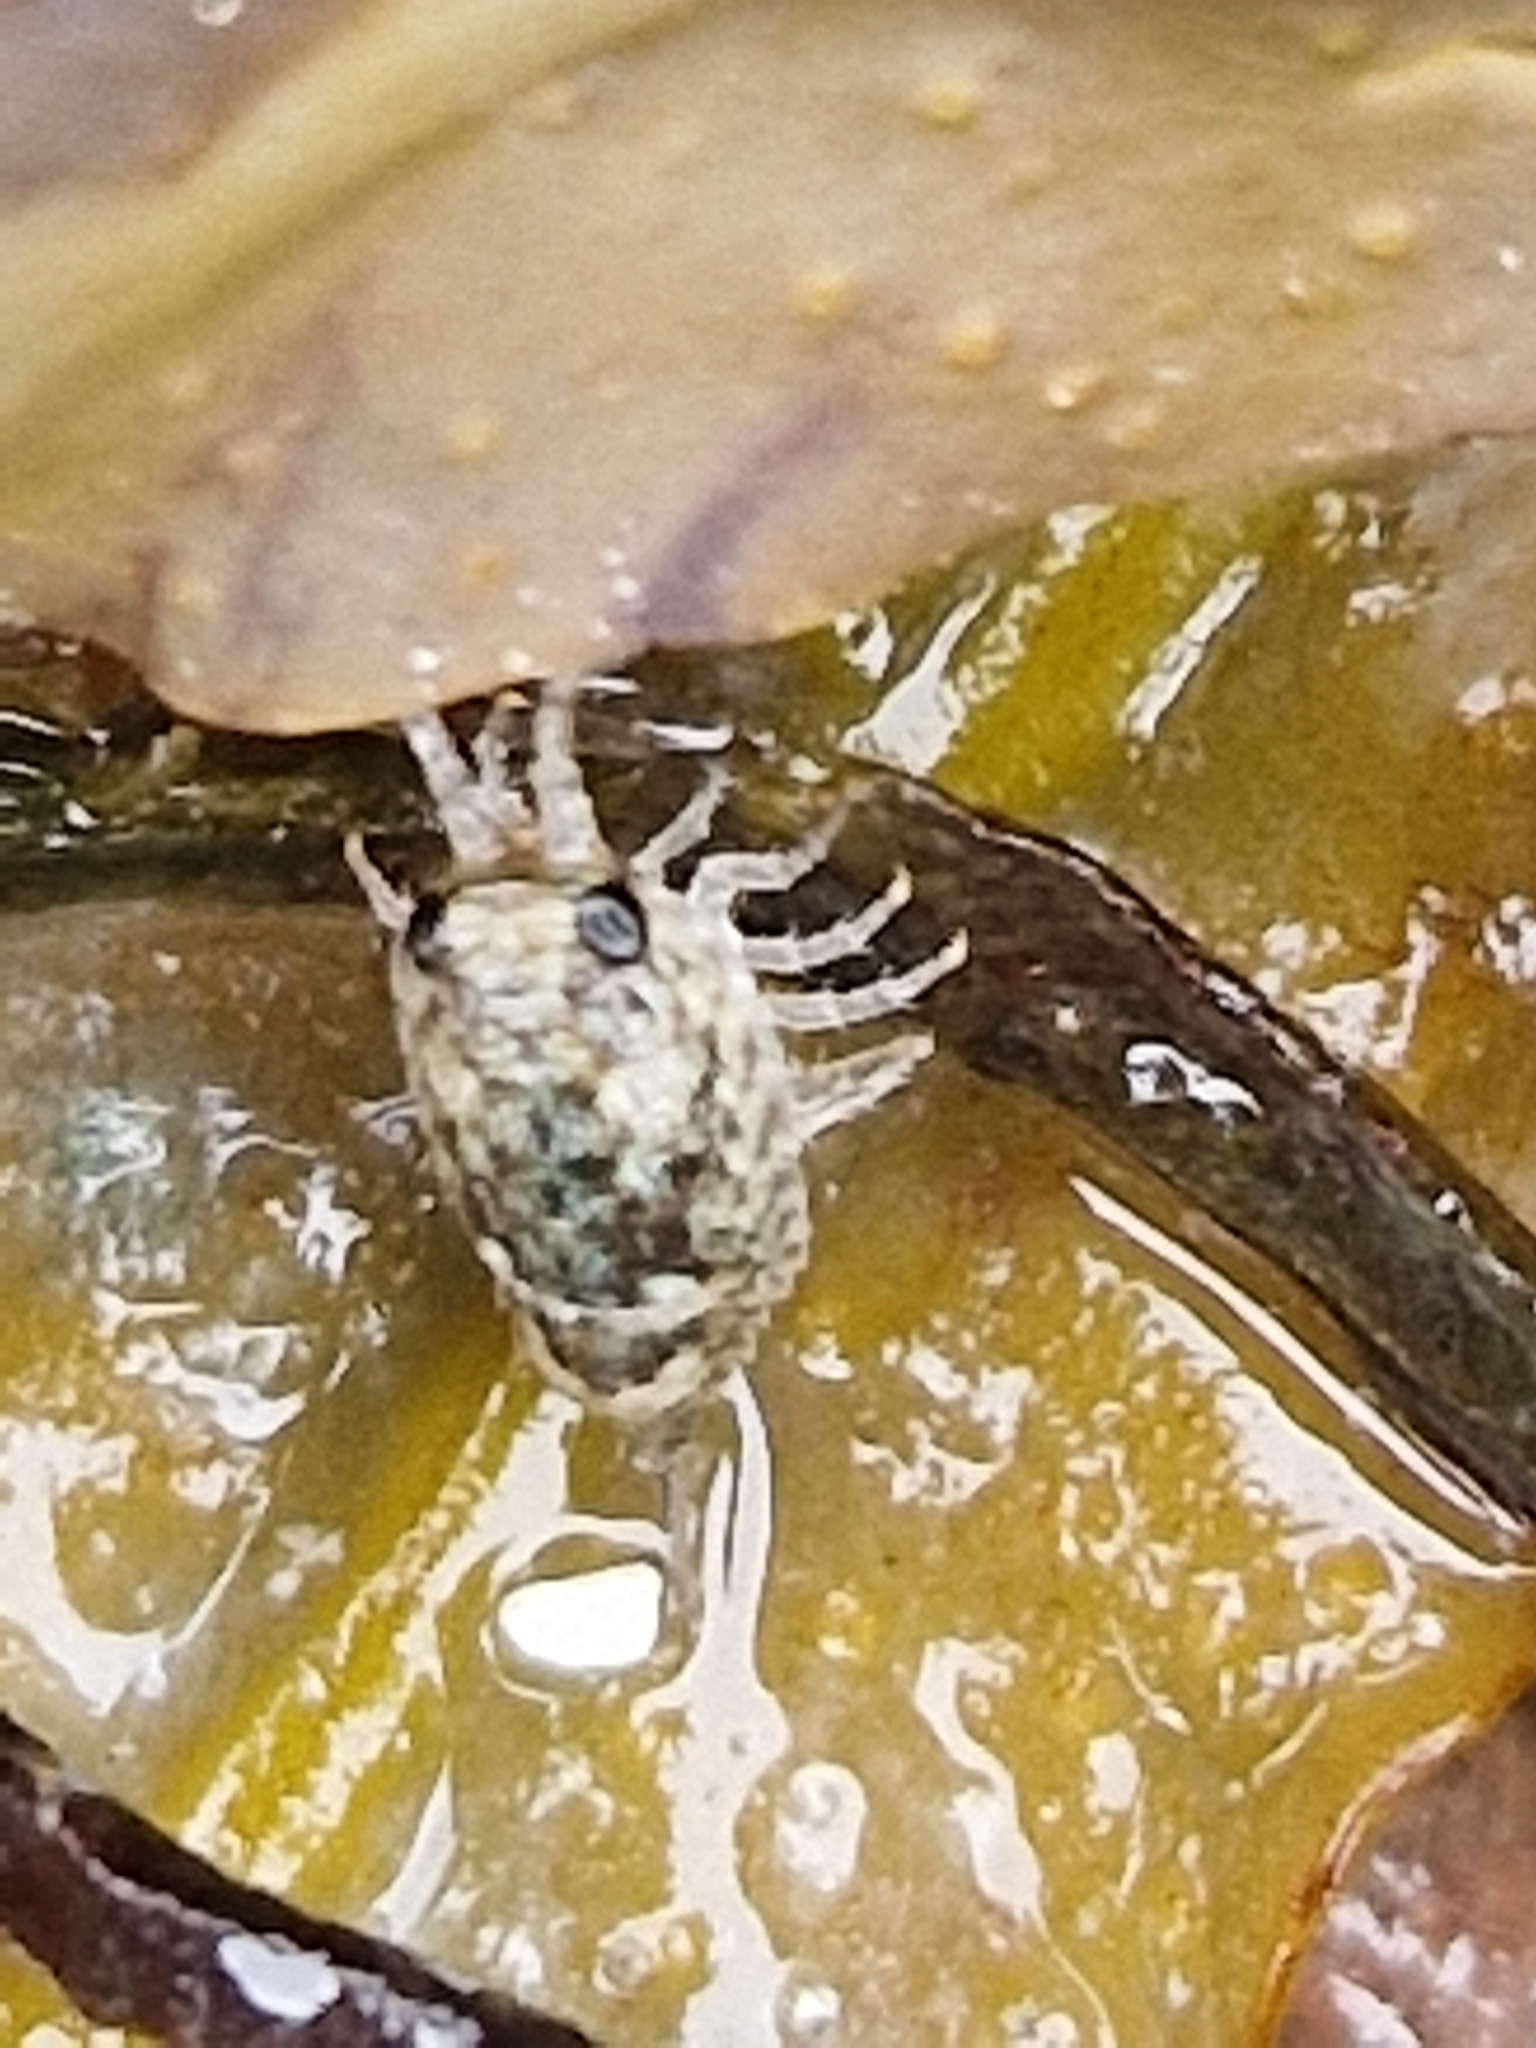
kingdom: Animalia
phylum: Arthropoda
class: Malacostraca
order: Isopoda
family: Ligiidae
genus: Ligia
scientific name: Ligia oceanica
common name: Sea slater
